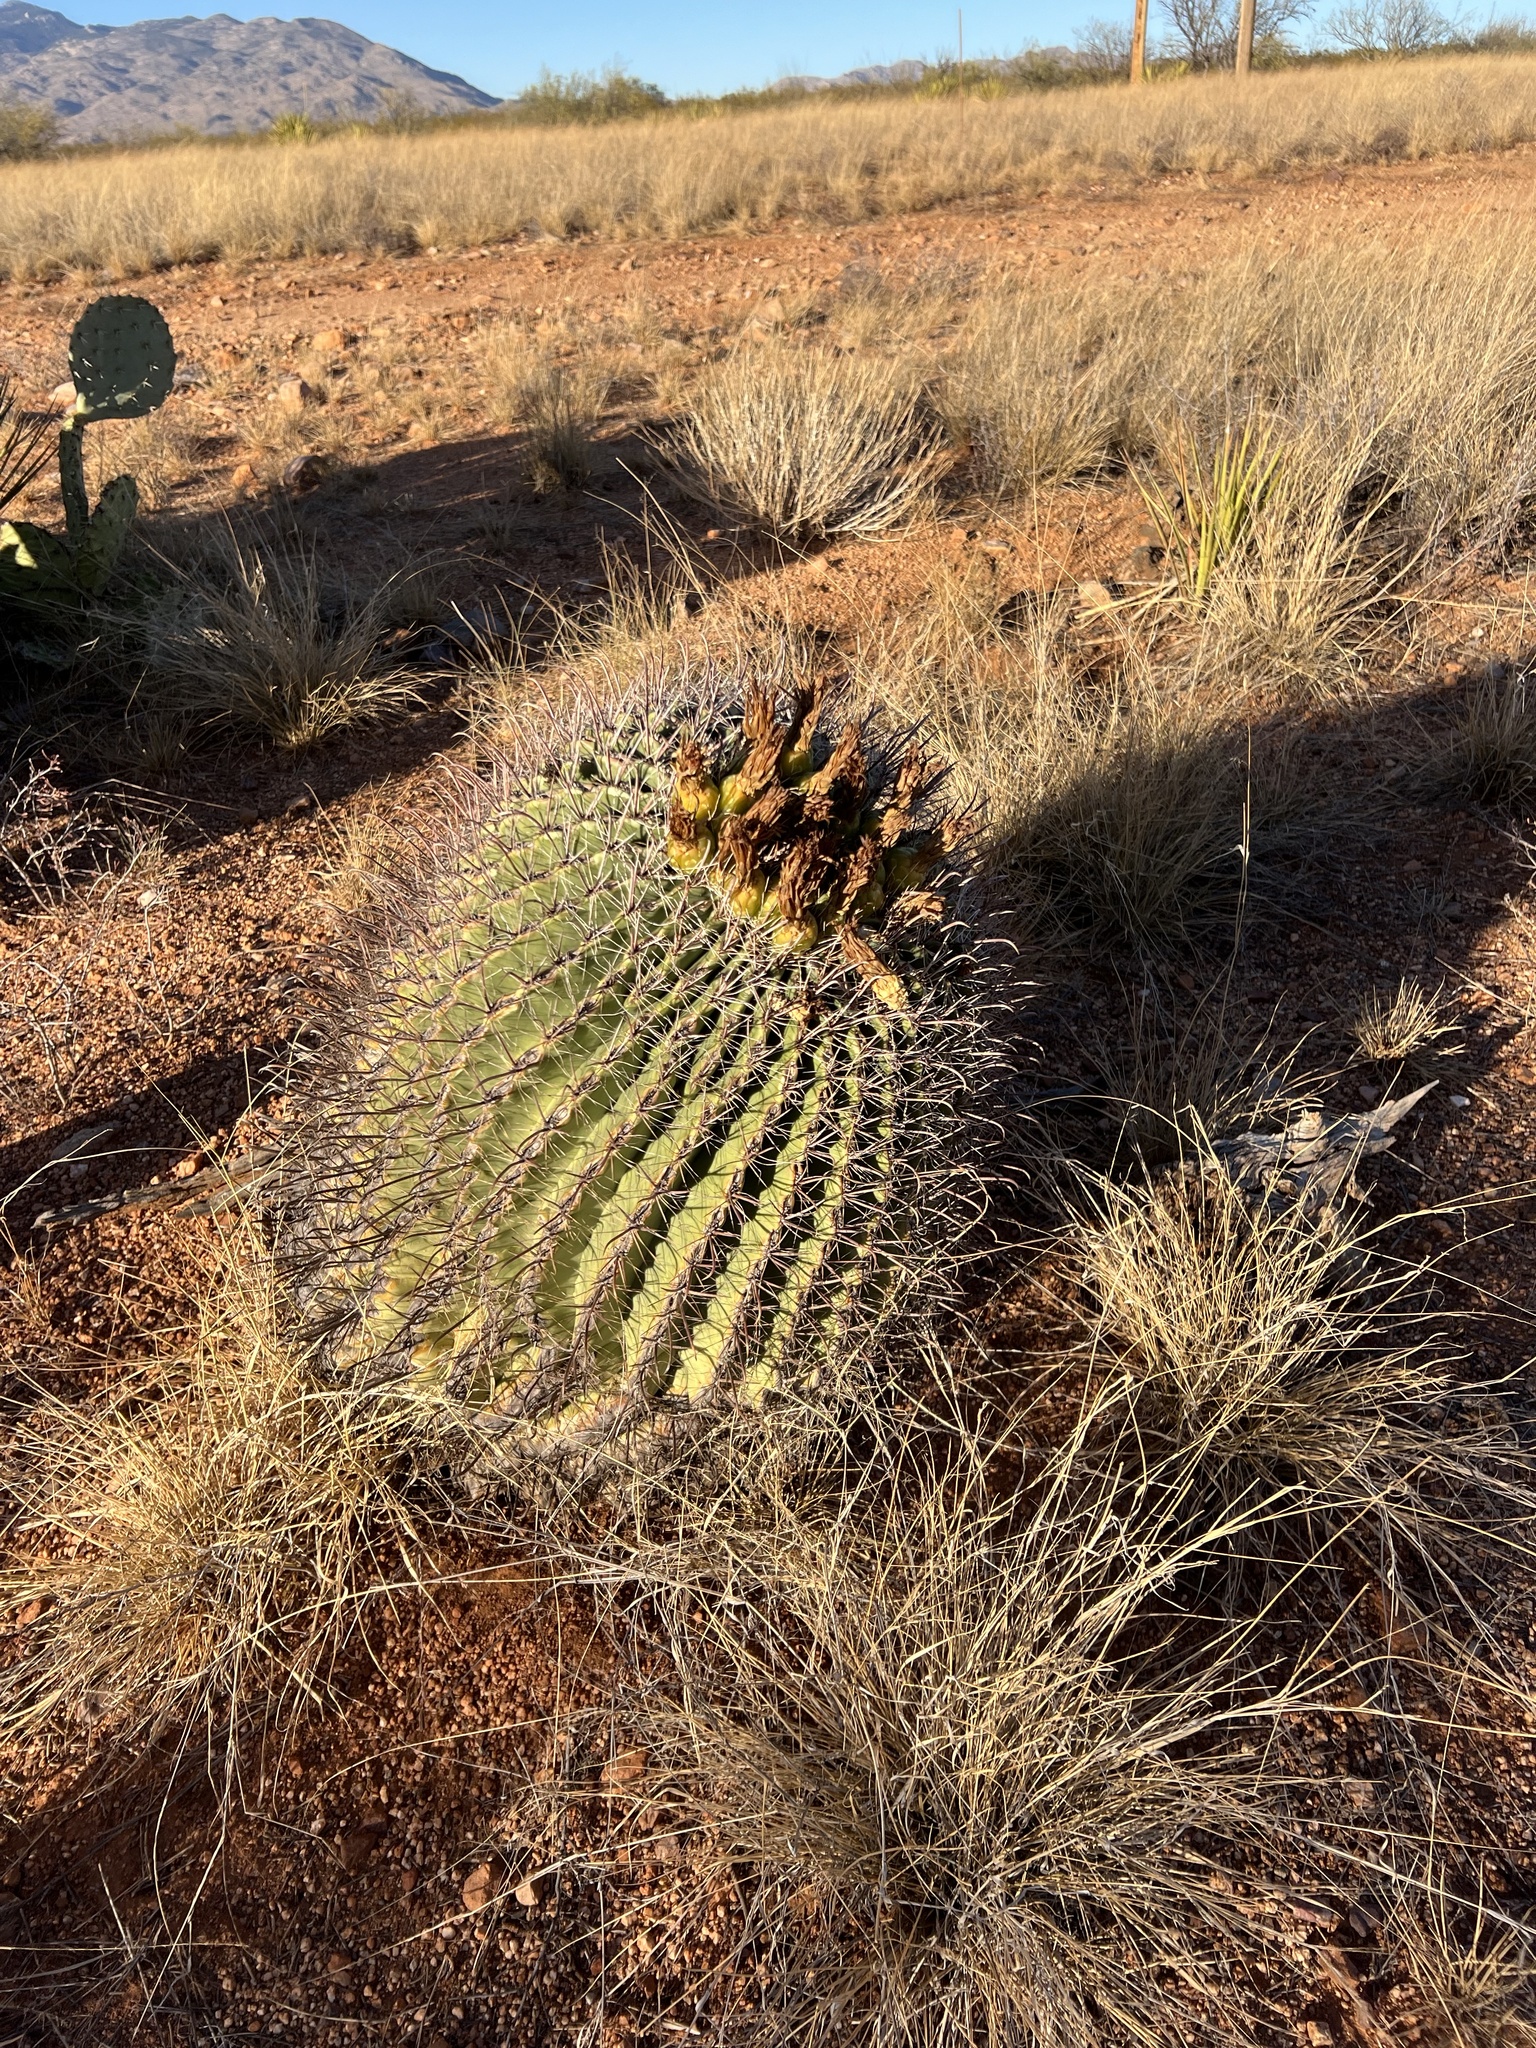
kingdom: Plantae
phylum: Tracheophyta
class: Magnoliopsida
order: Caryophyllales
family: Cactaceae
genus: Ferocactus
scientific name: Ferocactus wislizeni
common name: Candy barrel cactus
